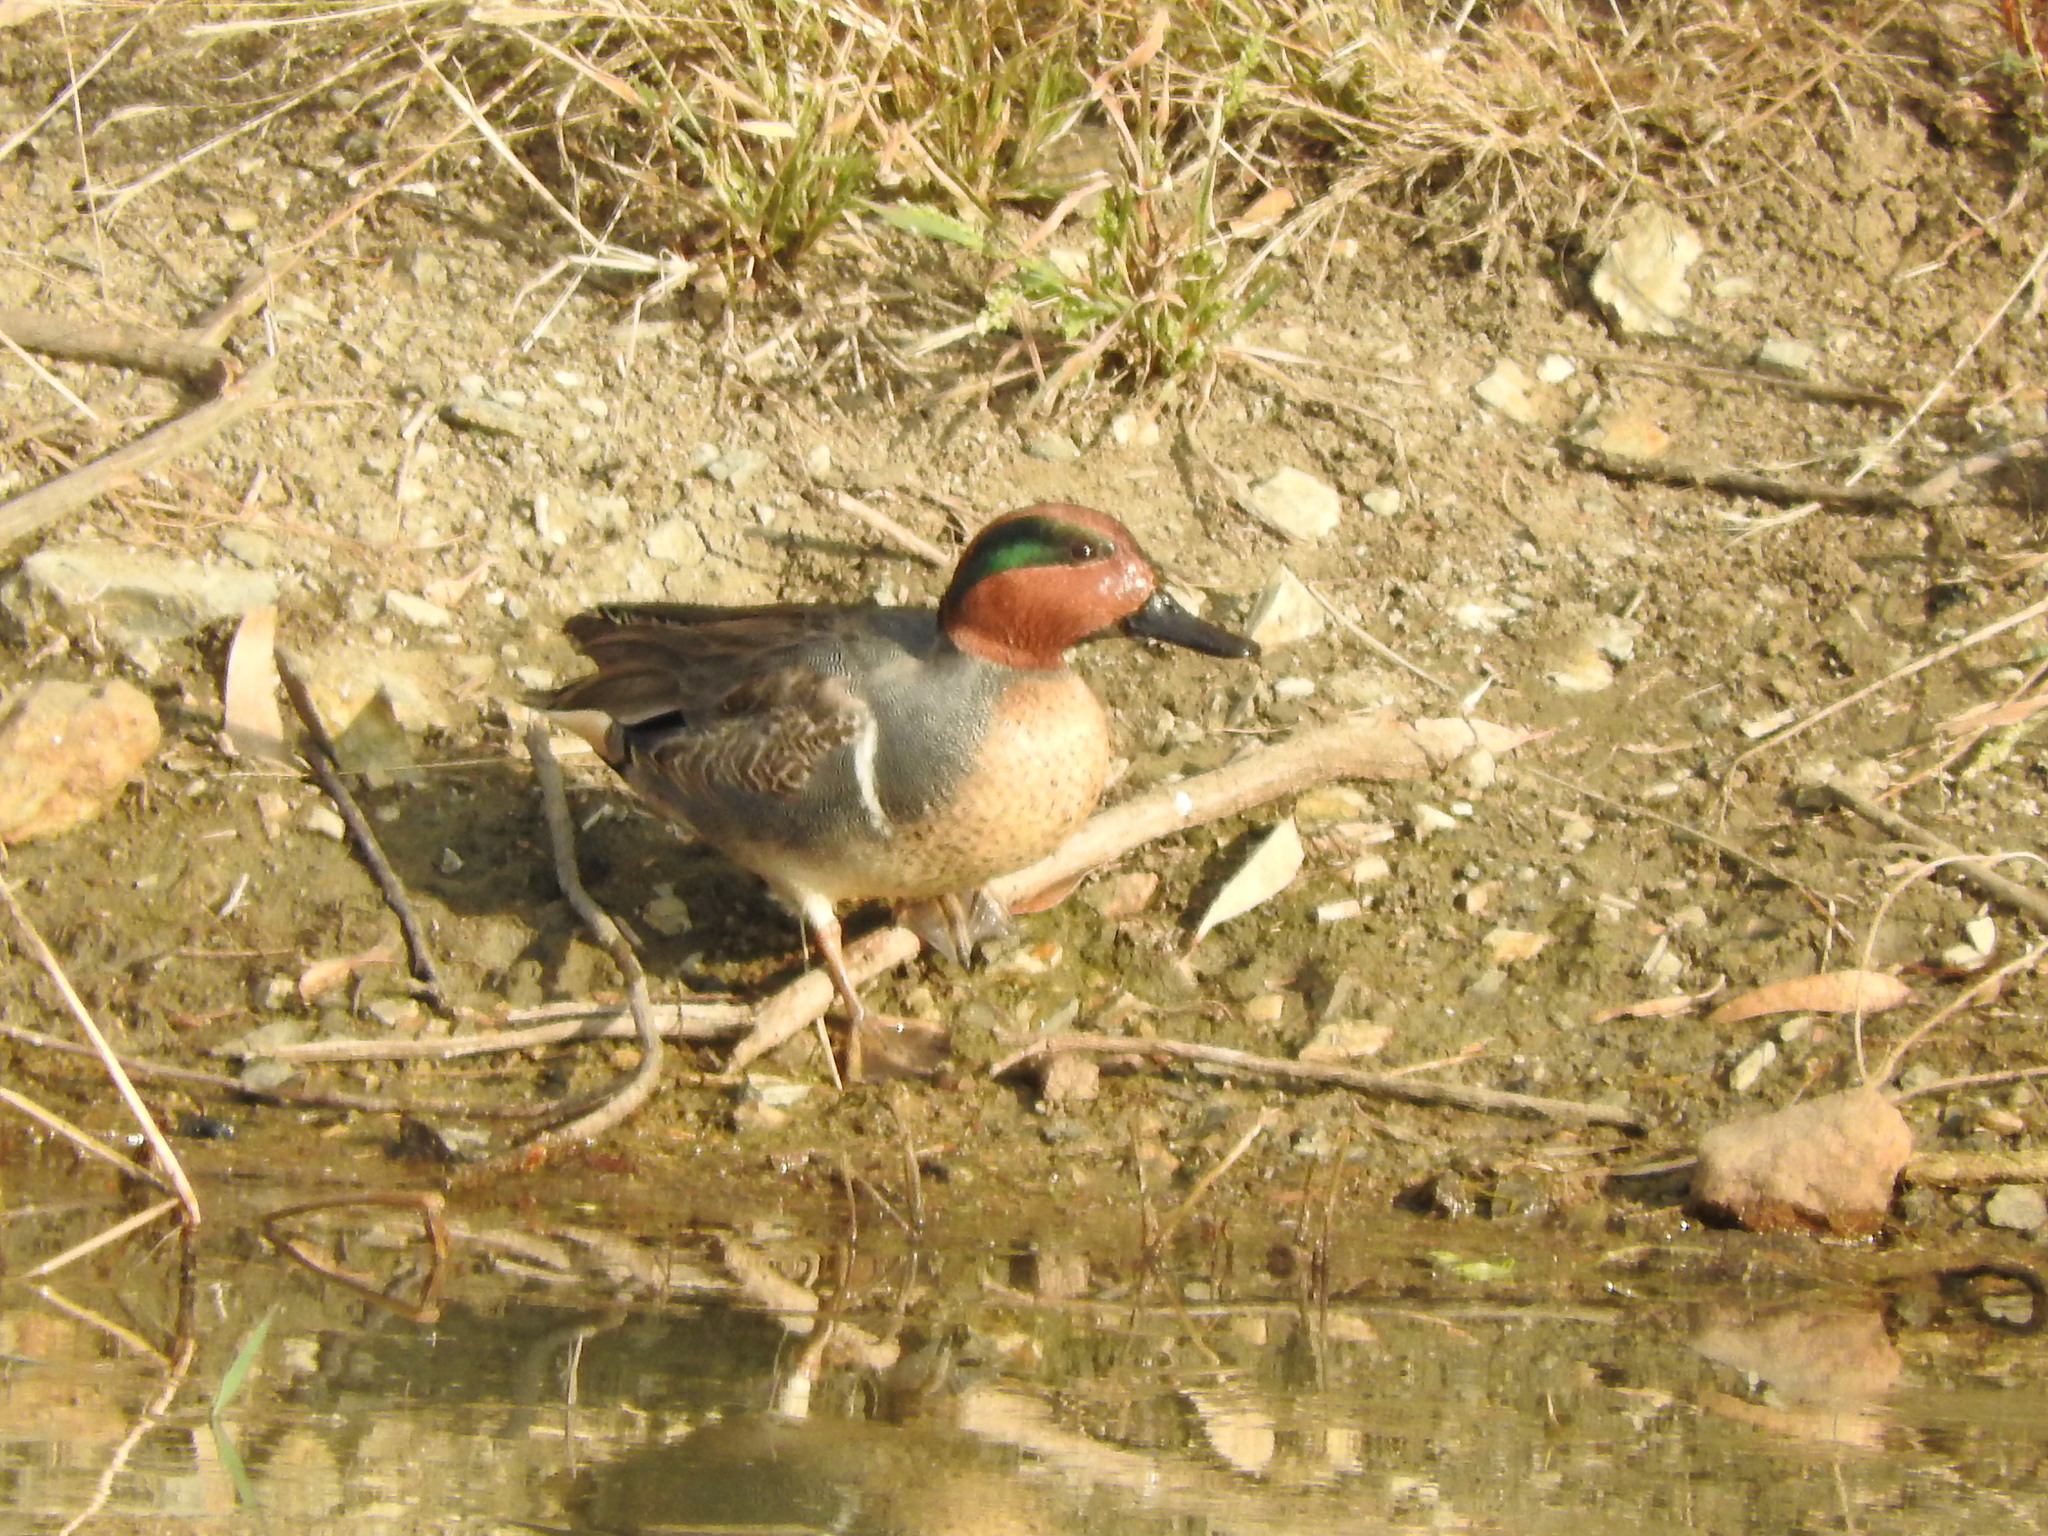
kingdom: Animalia
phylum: Chordata
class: Aves
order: Anseriformes
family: Anatidae
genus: Anas
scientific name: Anas crecca
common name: Eurasian teal
